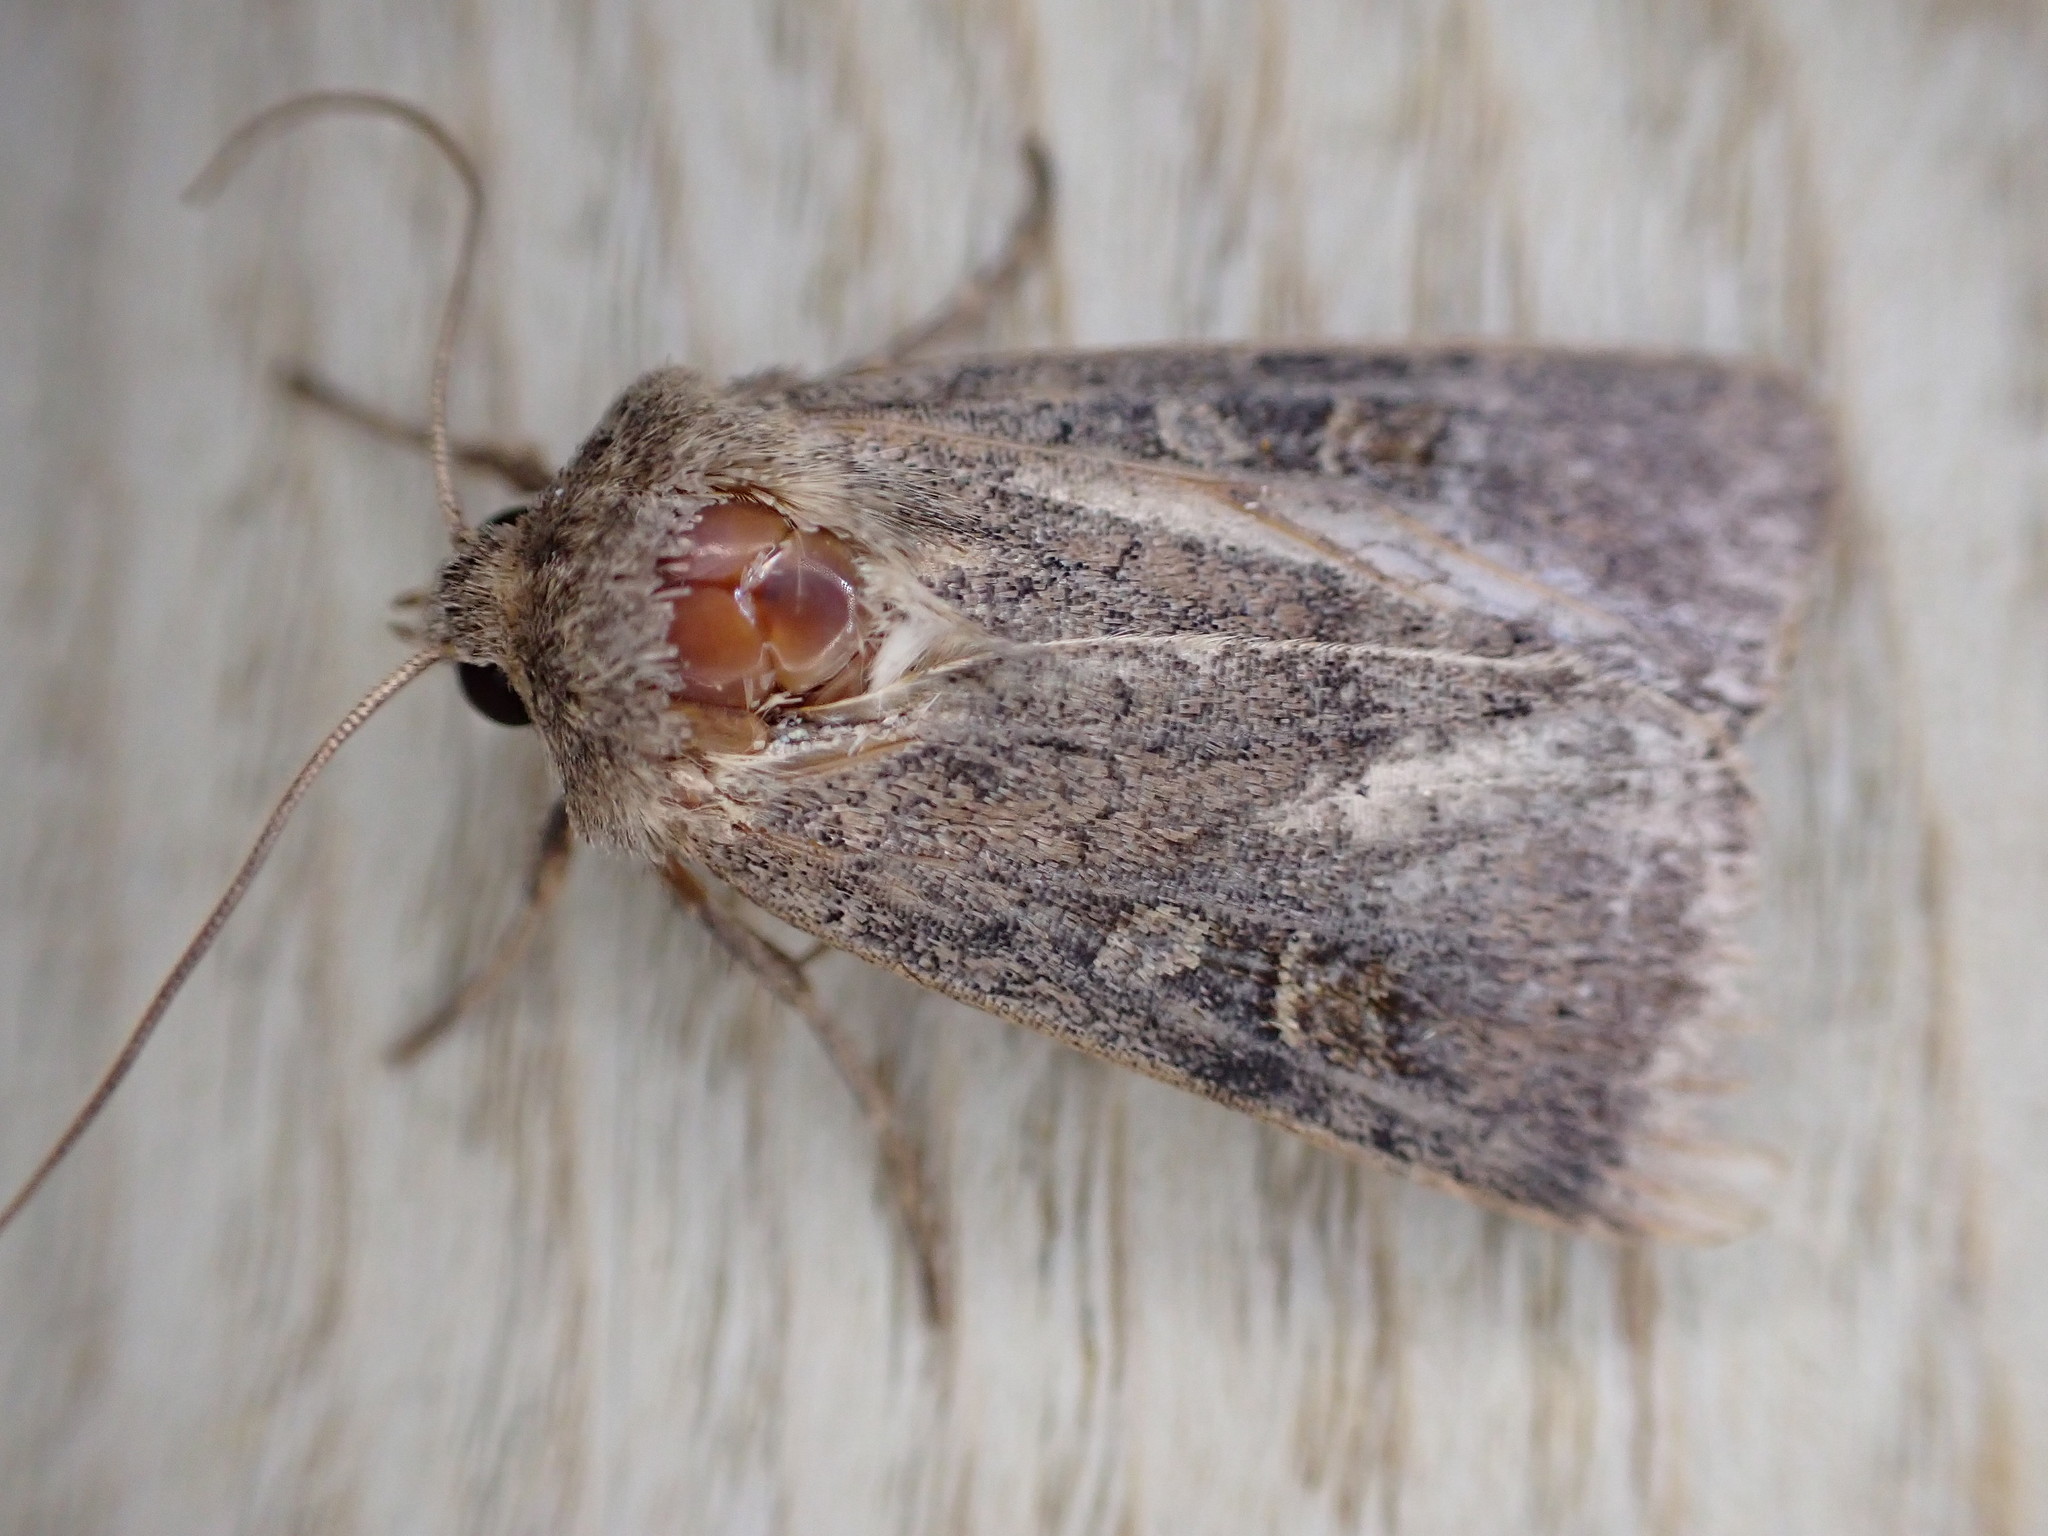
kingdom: Animalia
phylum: Arthropoda
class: Insecta
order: Lepidoptera
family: Noctuidae
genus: Xestia
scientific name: Xestia xanthographa
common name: Square-spot rustic
